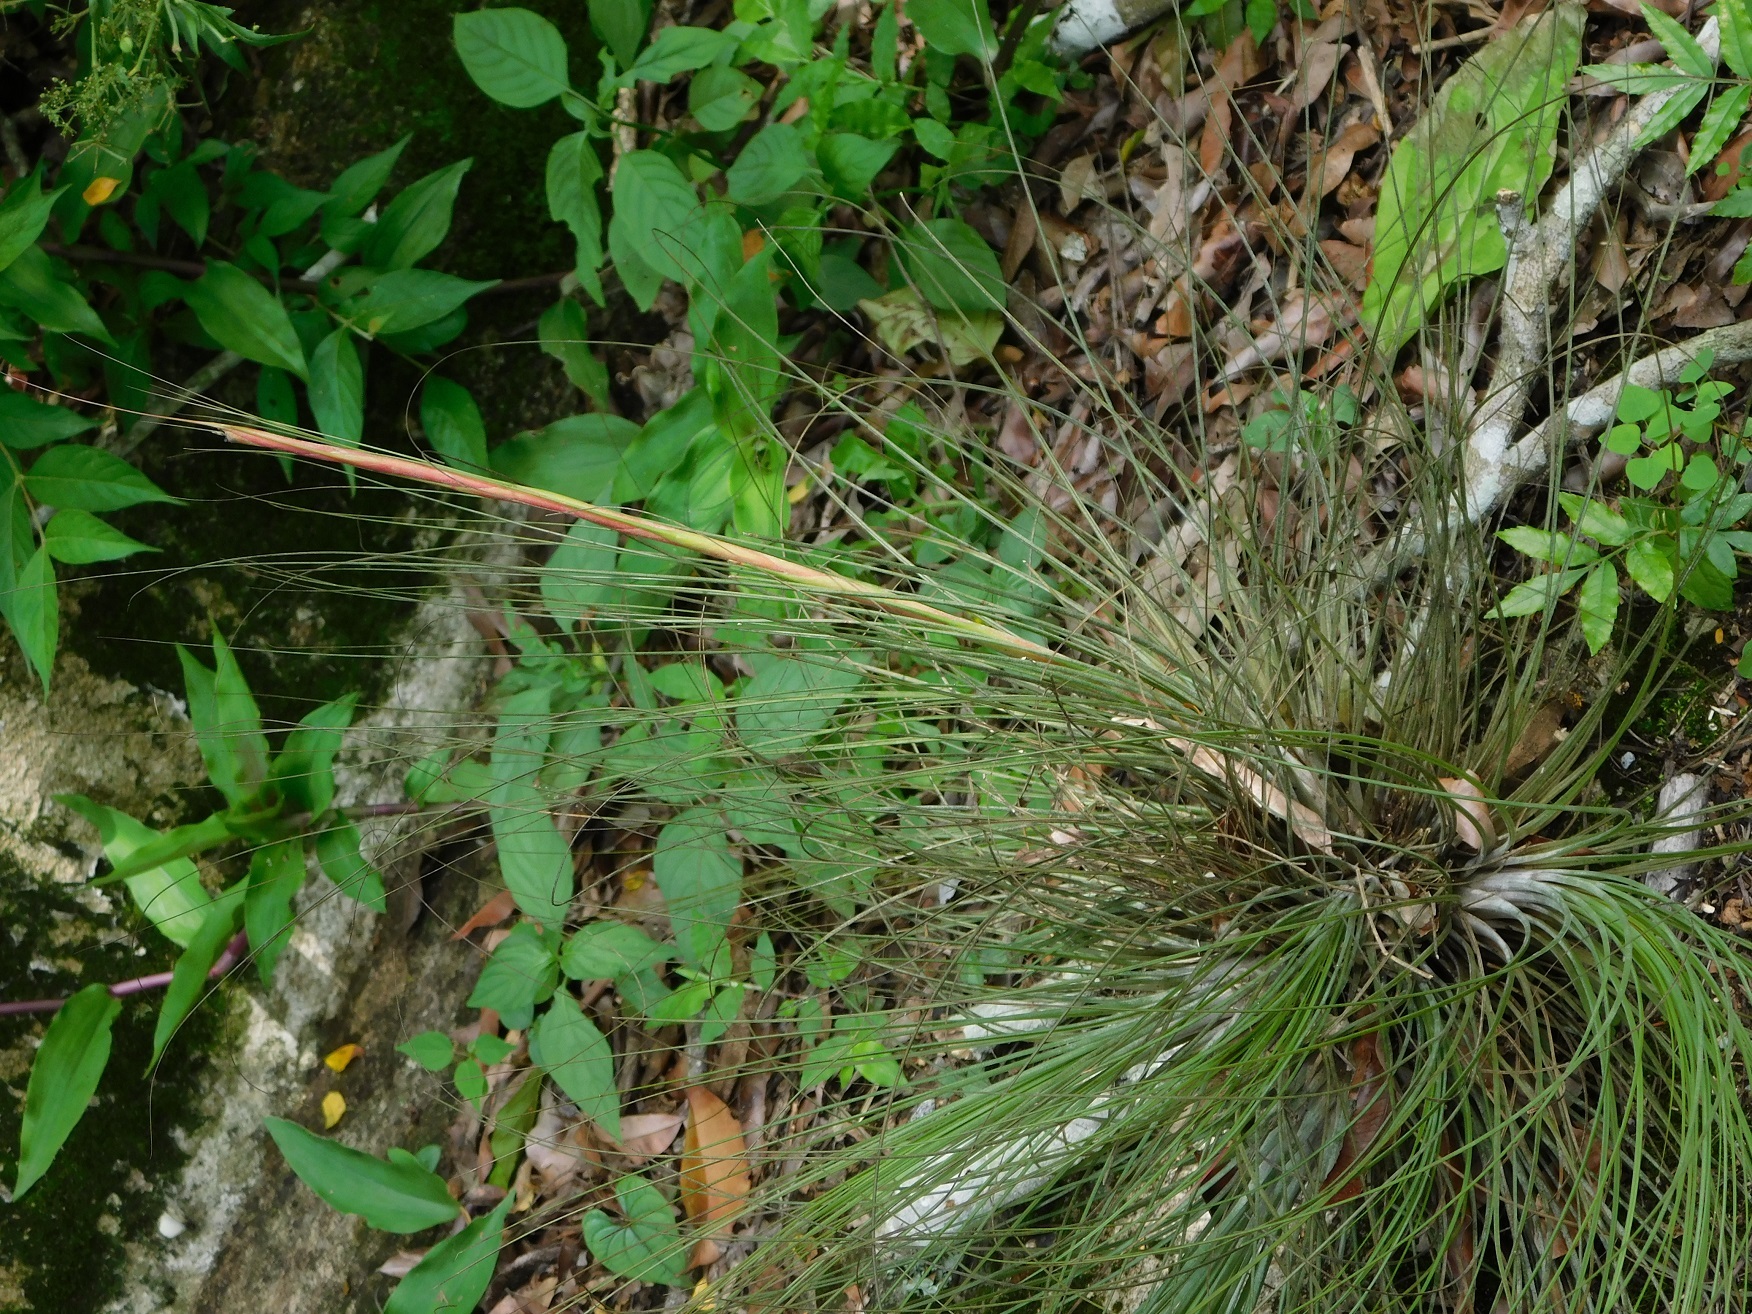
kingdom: Plantae
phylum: Tracheophyta
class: Liliopsida
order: Poales
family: Bromeliaceae
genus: Tillandsia
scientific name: Tillandsia juncea
